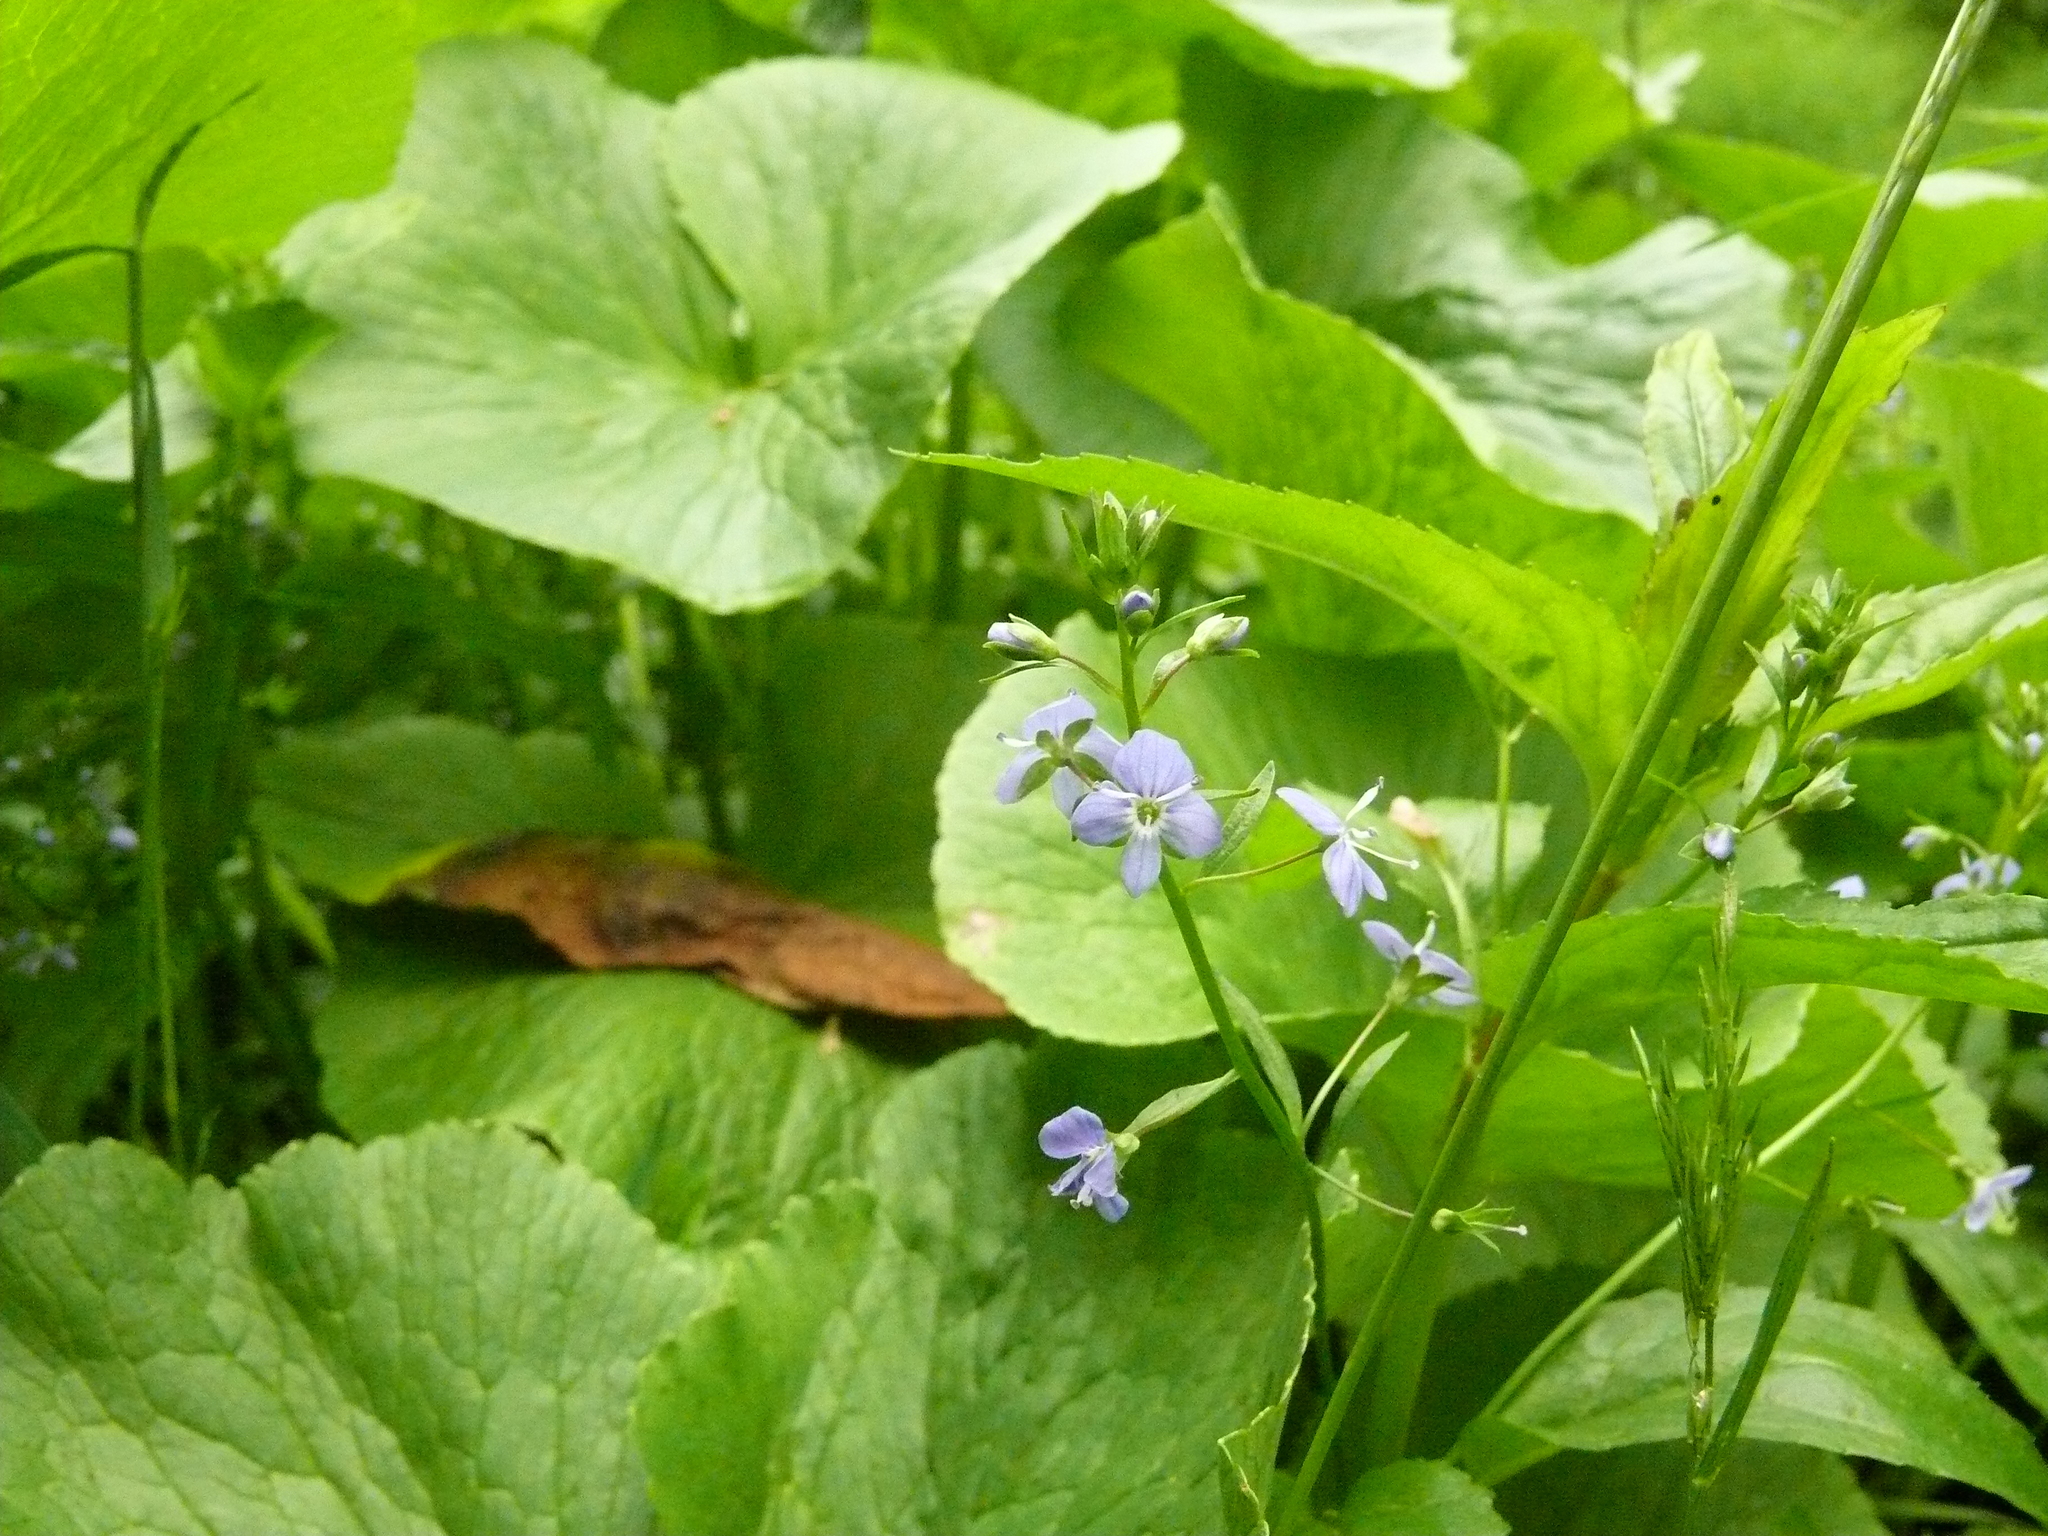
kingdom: Plantae
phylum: Tracheophyta
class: Magnoliopsida
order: Lamiales
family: Plantaginaceae
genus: Veronica
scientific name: Veronica americana
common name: American brooklime
